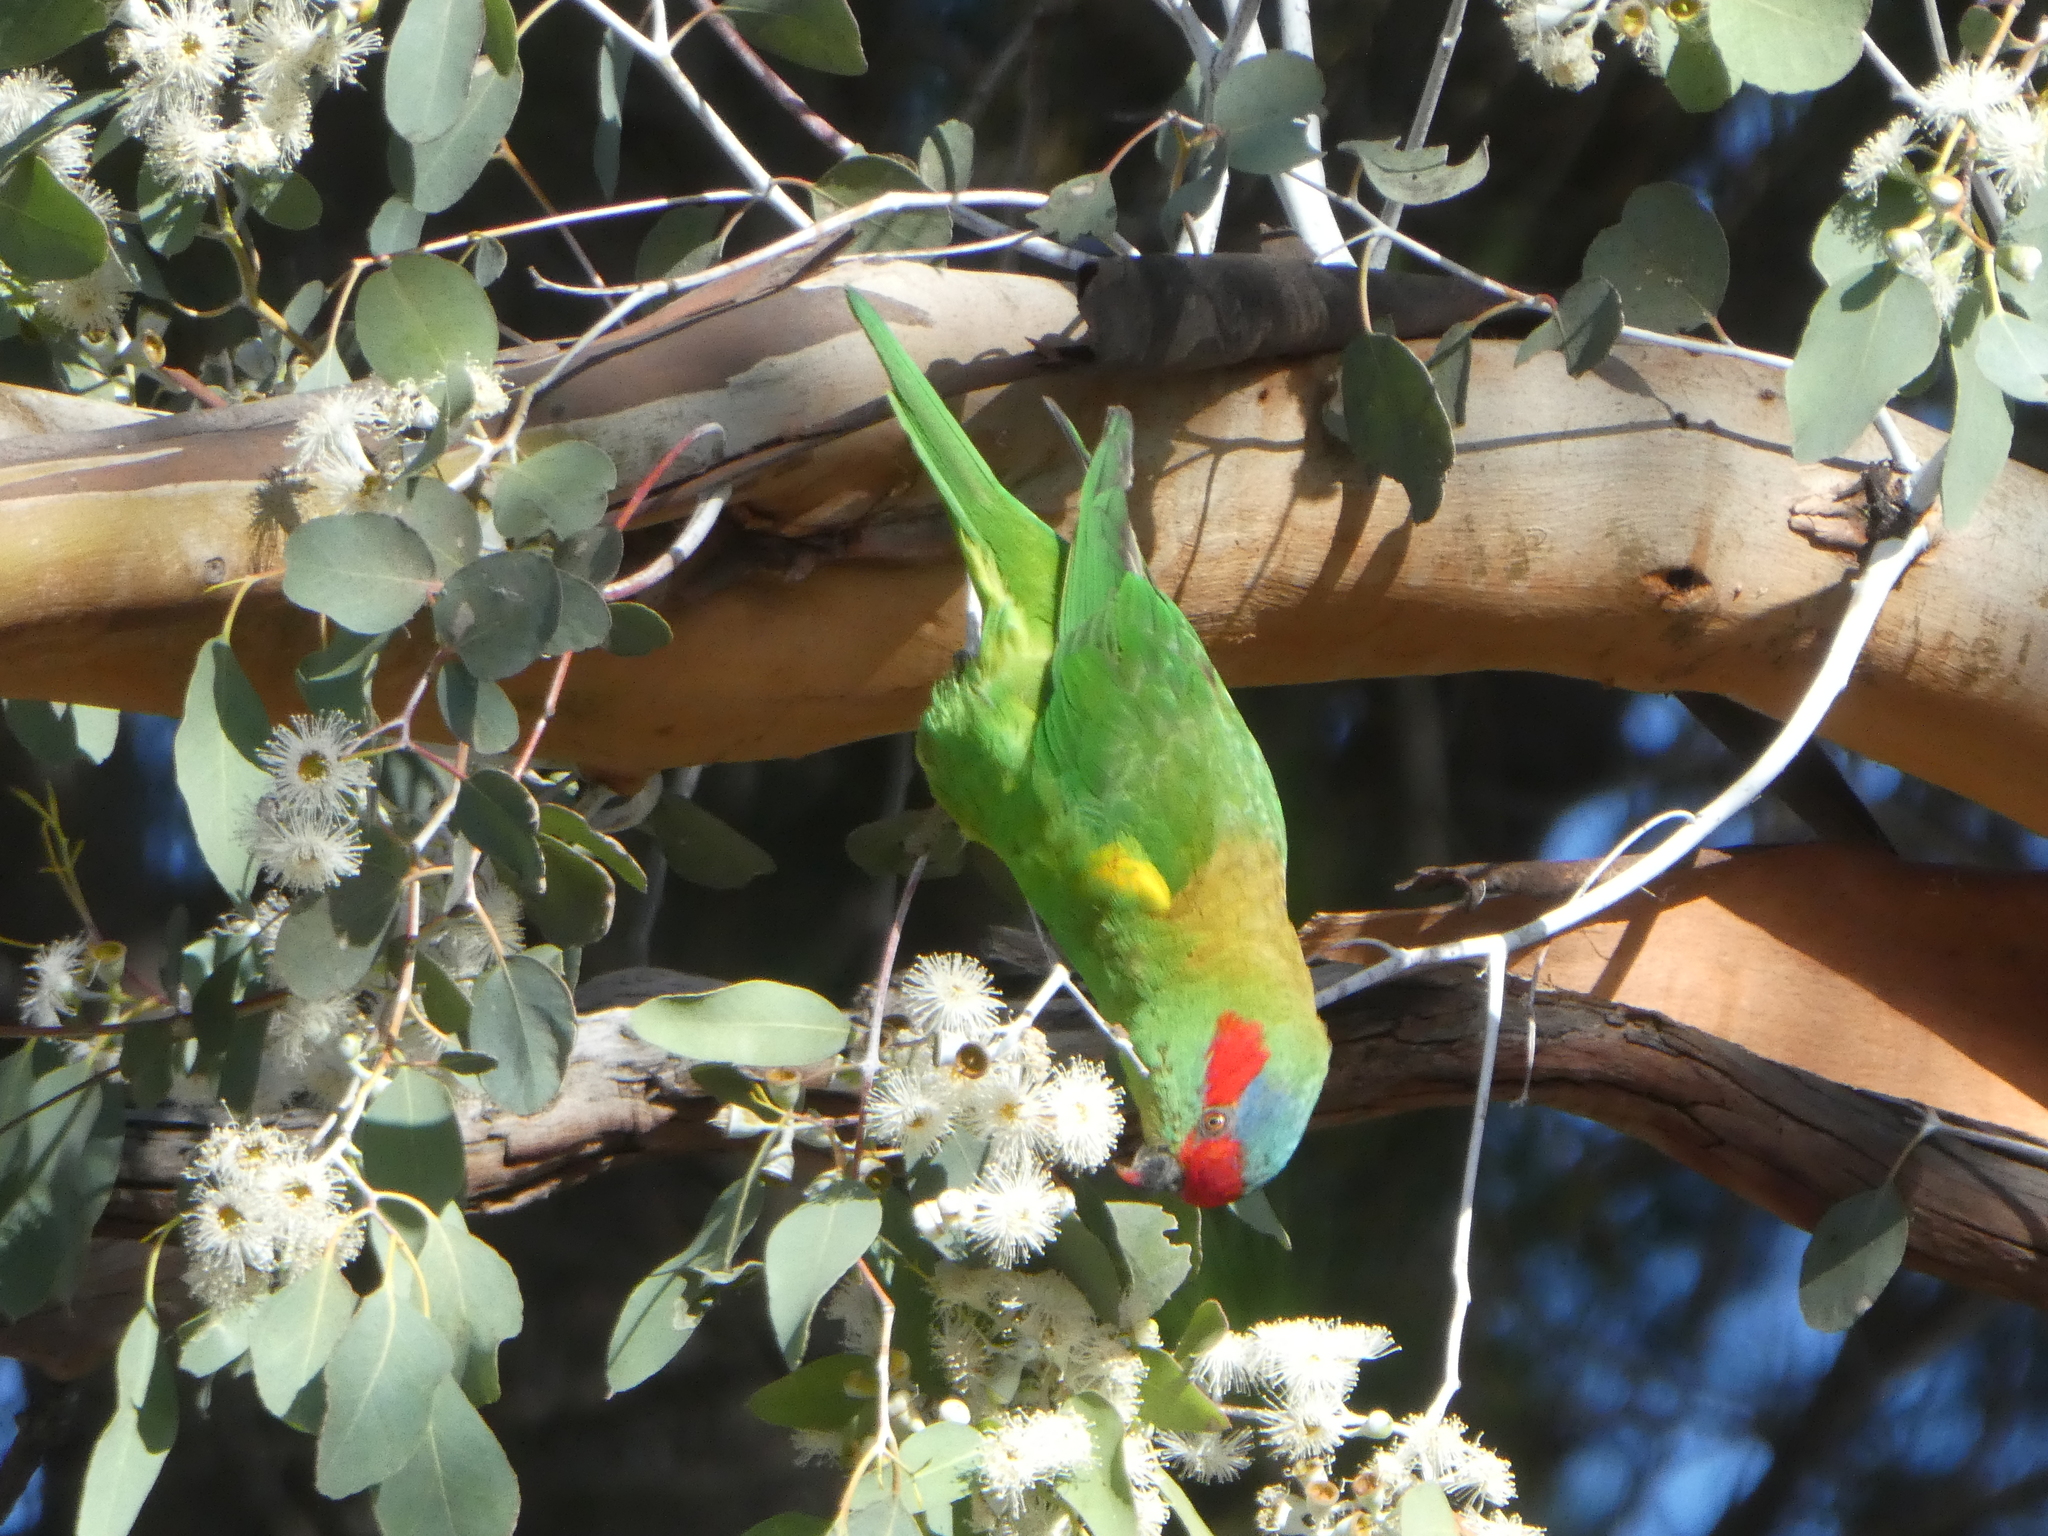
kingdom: Animalia
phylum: Chordata
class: Aves
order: Psittaciformes
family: Psittacidae
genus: Glossopsitta
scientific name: Glossopsitta concinna
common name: Musk lorikeet
